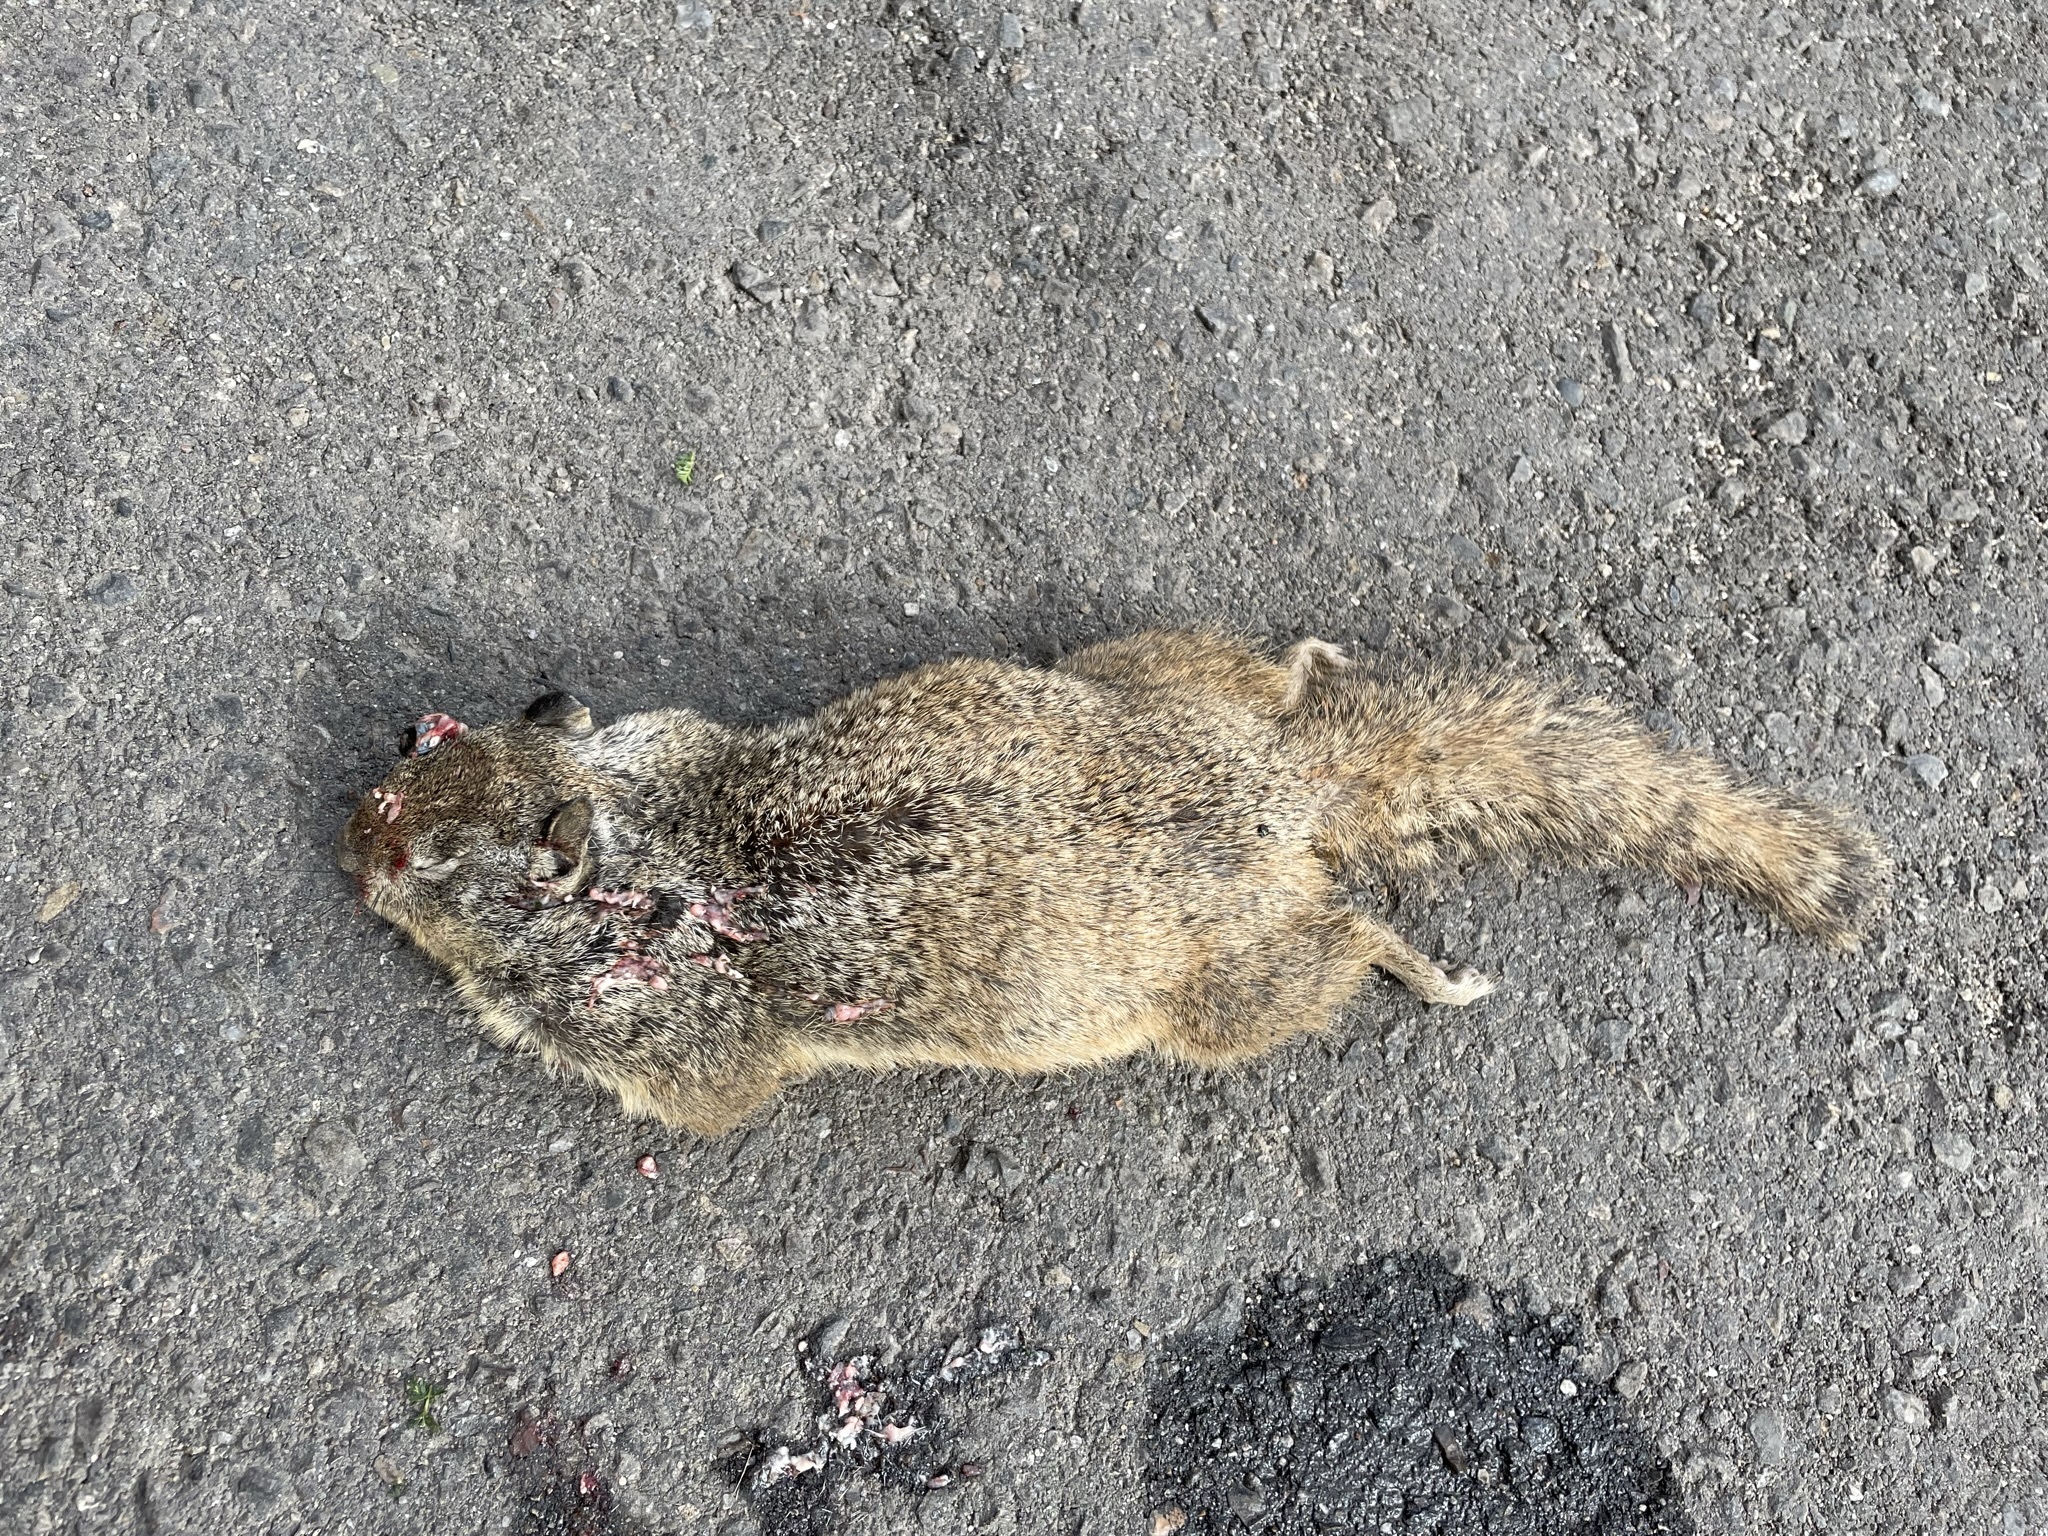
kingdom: Animalia
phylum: Chordata
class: Mammalia
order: Rodentia
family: Sciuridae
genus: Otospermophilus
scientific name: Otospermophilus beecheyi
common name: California ground squirrel
